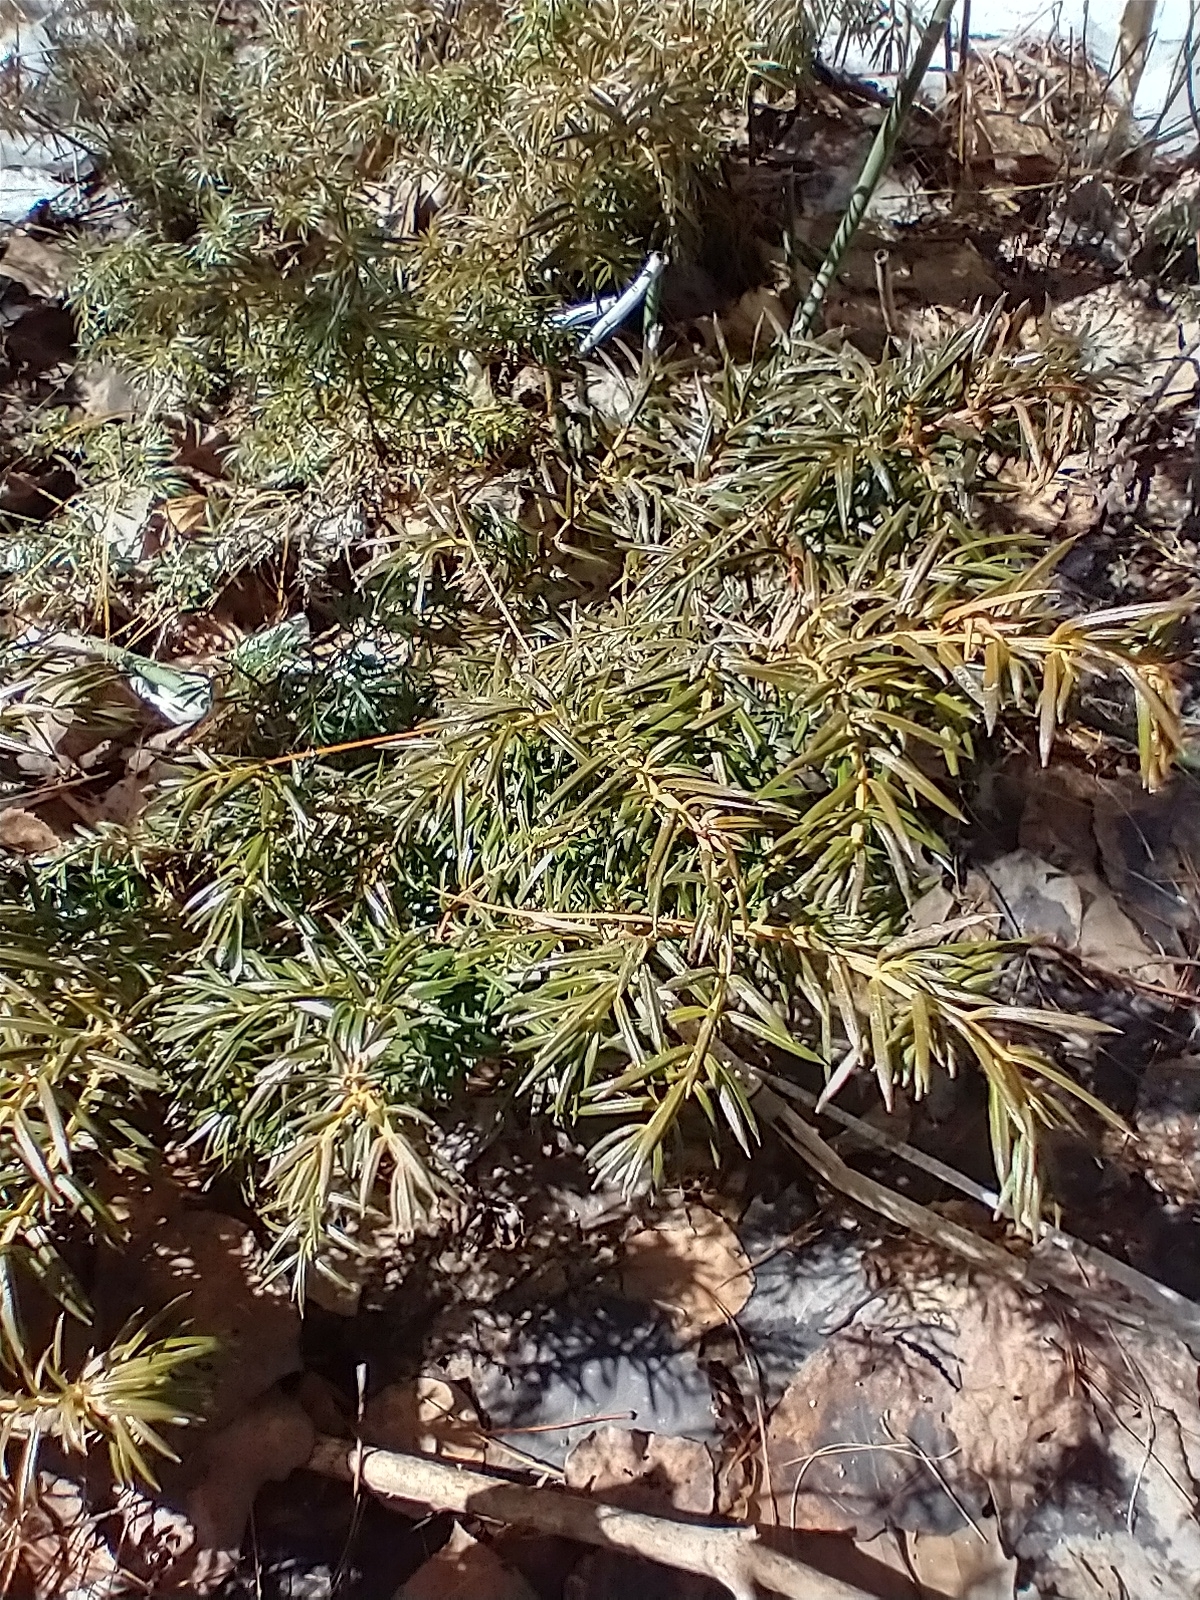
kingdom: Plantae
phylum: Tracheophyta
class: Pinopsida
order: Pinales
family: Cupressaceae
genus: Juniperus
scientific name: Juniperus communis
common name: Common juniper
